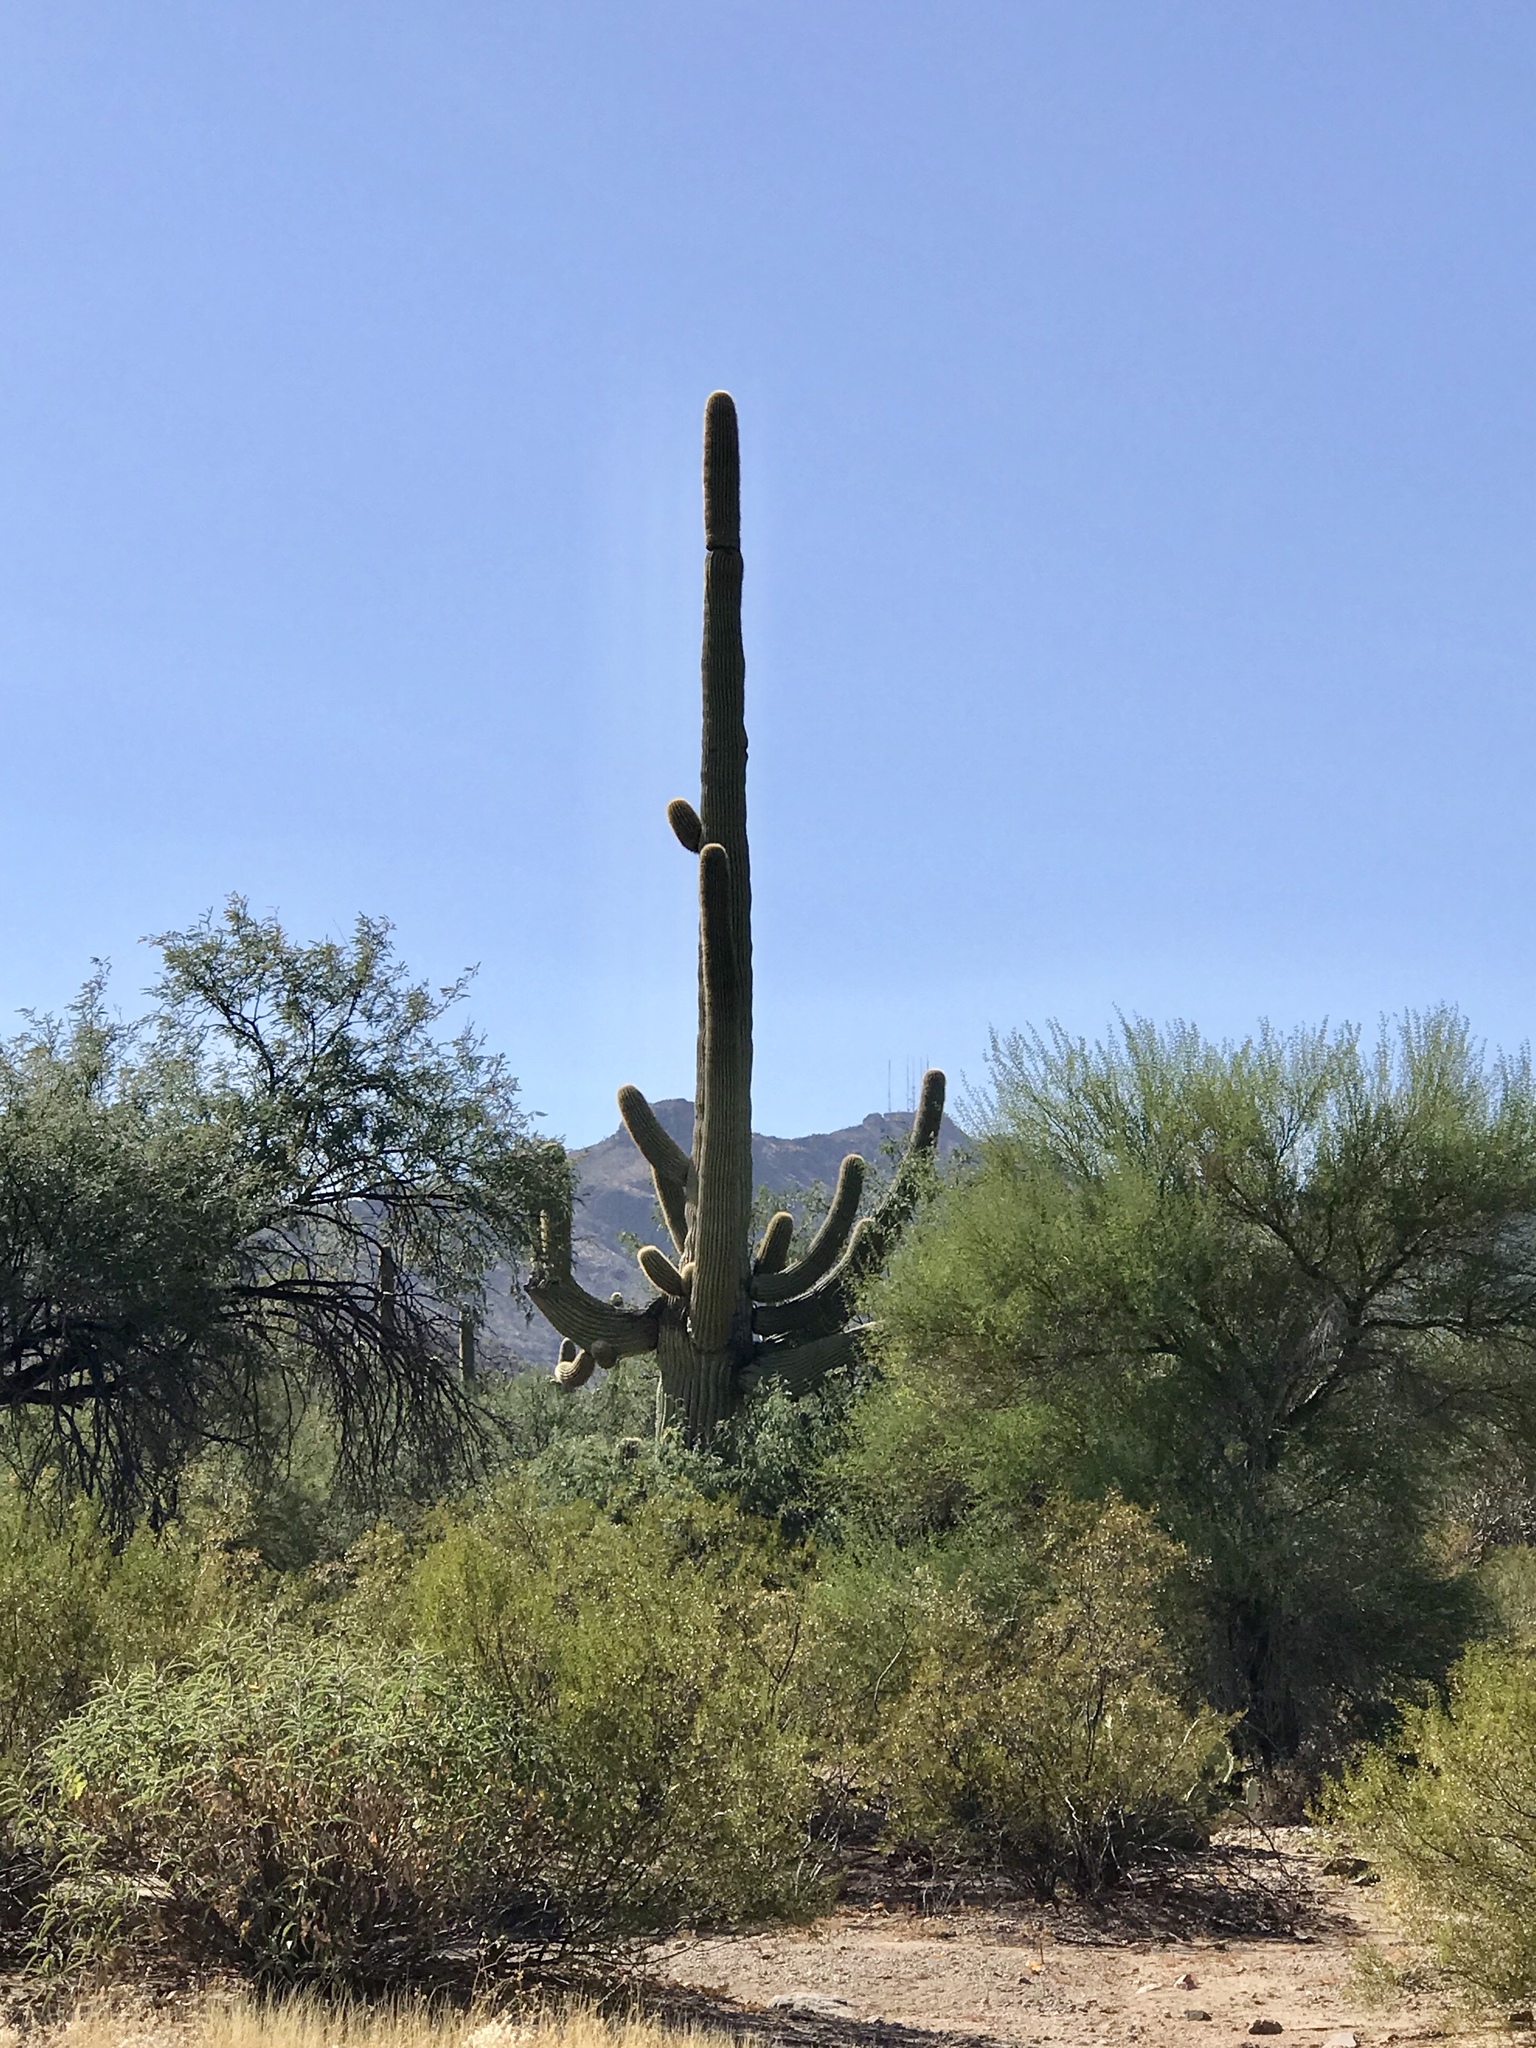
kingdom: Plantae
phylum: Tracheophyta
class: Magnoliopsida
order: Caryophyllales
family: Cactaceae
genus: Carnegiea
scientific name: Carnegiea gigantea
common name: Saguaro
